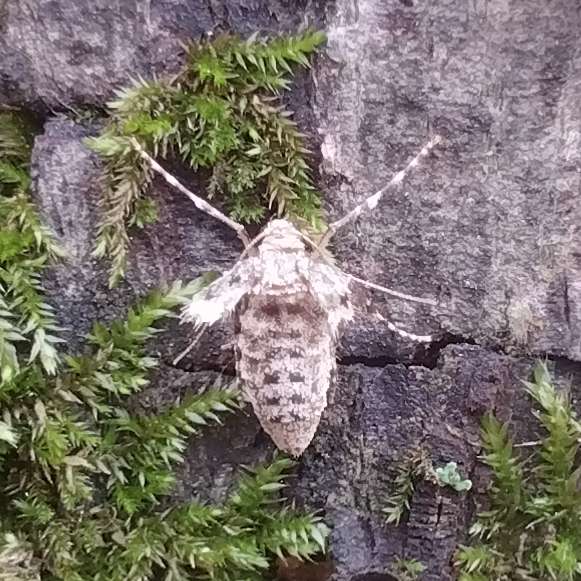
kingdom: Animalia
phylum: Arthropoda
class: Insecta
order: Lepidoptera
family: Geometridae
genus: Operophtera
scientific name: Operophtera brumata
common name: Winter moth
